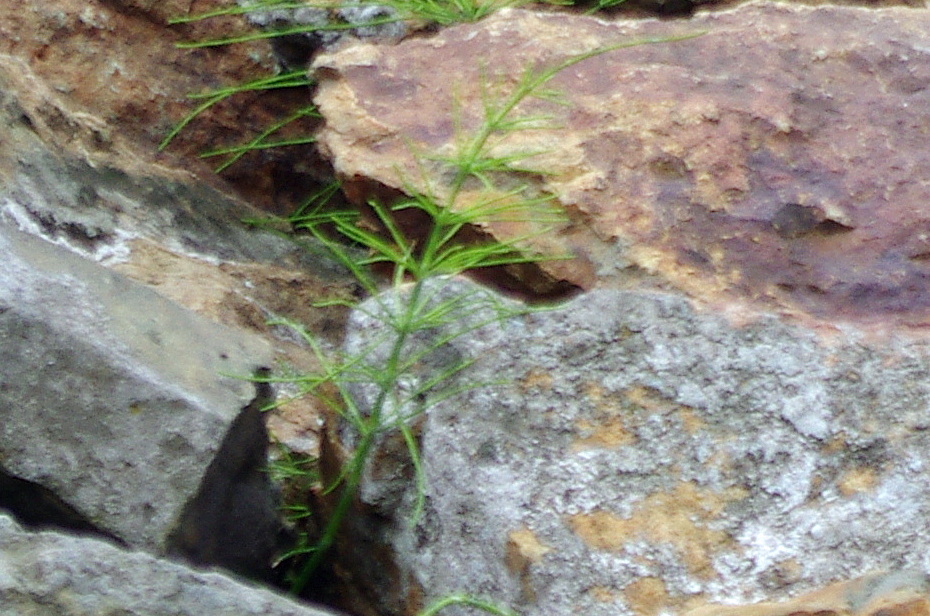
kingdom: Plantae
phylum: Tracheophyta
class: Polypodiopsida
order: Equisetales
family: Equisetaceae
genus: Equisetum
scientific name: Equisetum arvense
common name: Field horsetail
